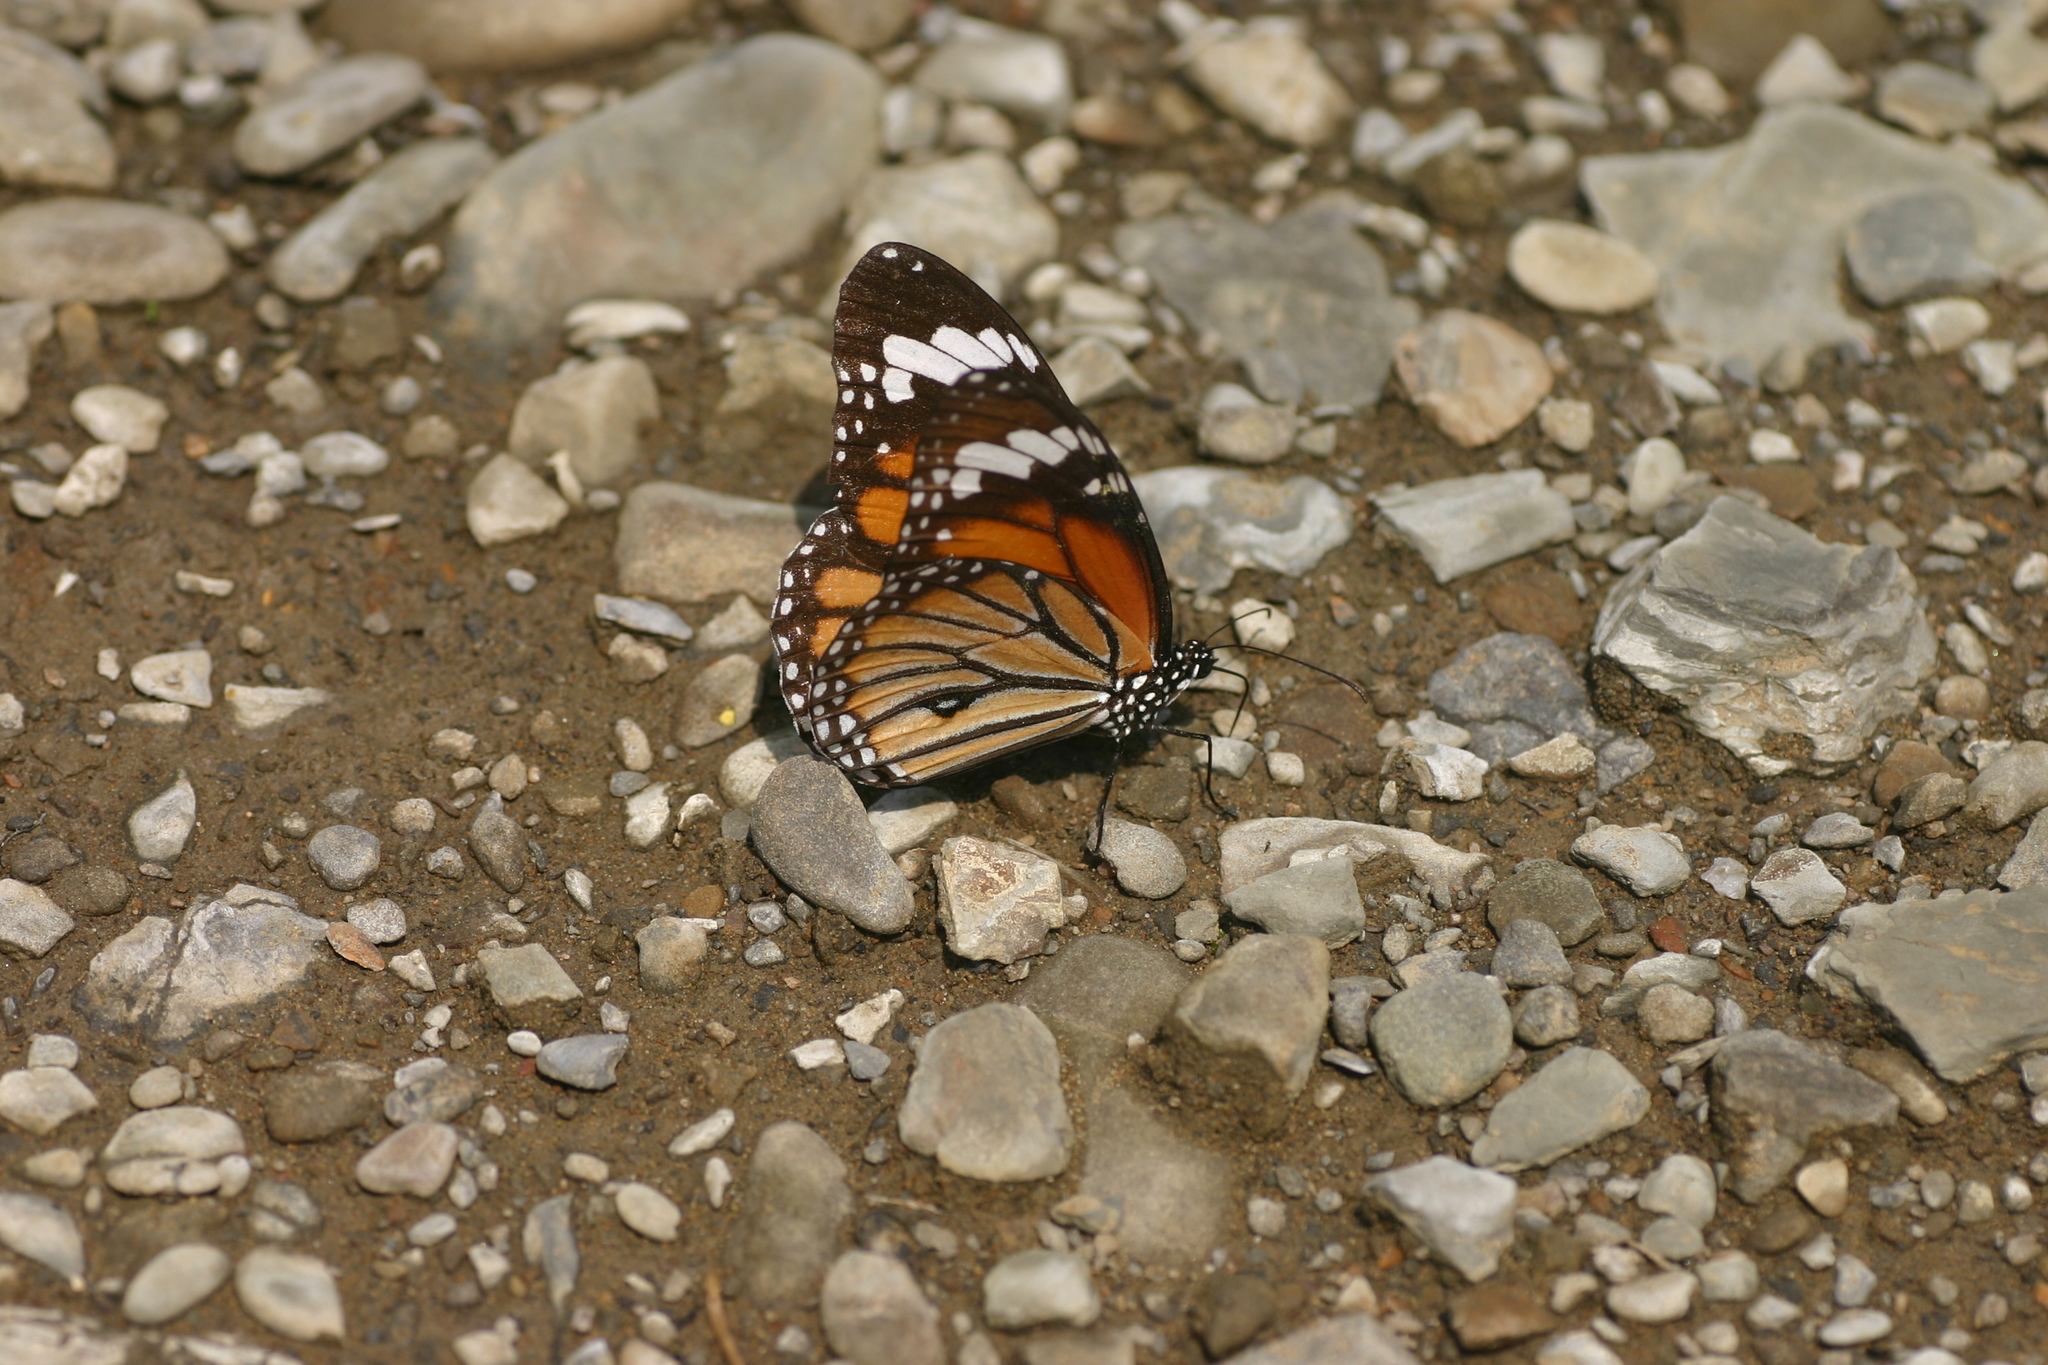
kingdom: Animalia
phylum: Arthropoda
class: Insecta
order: Lepidoptera
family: Nymphalidae
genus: Danaus
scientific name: Danaus genutia
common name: Common tiger butterfly
